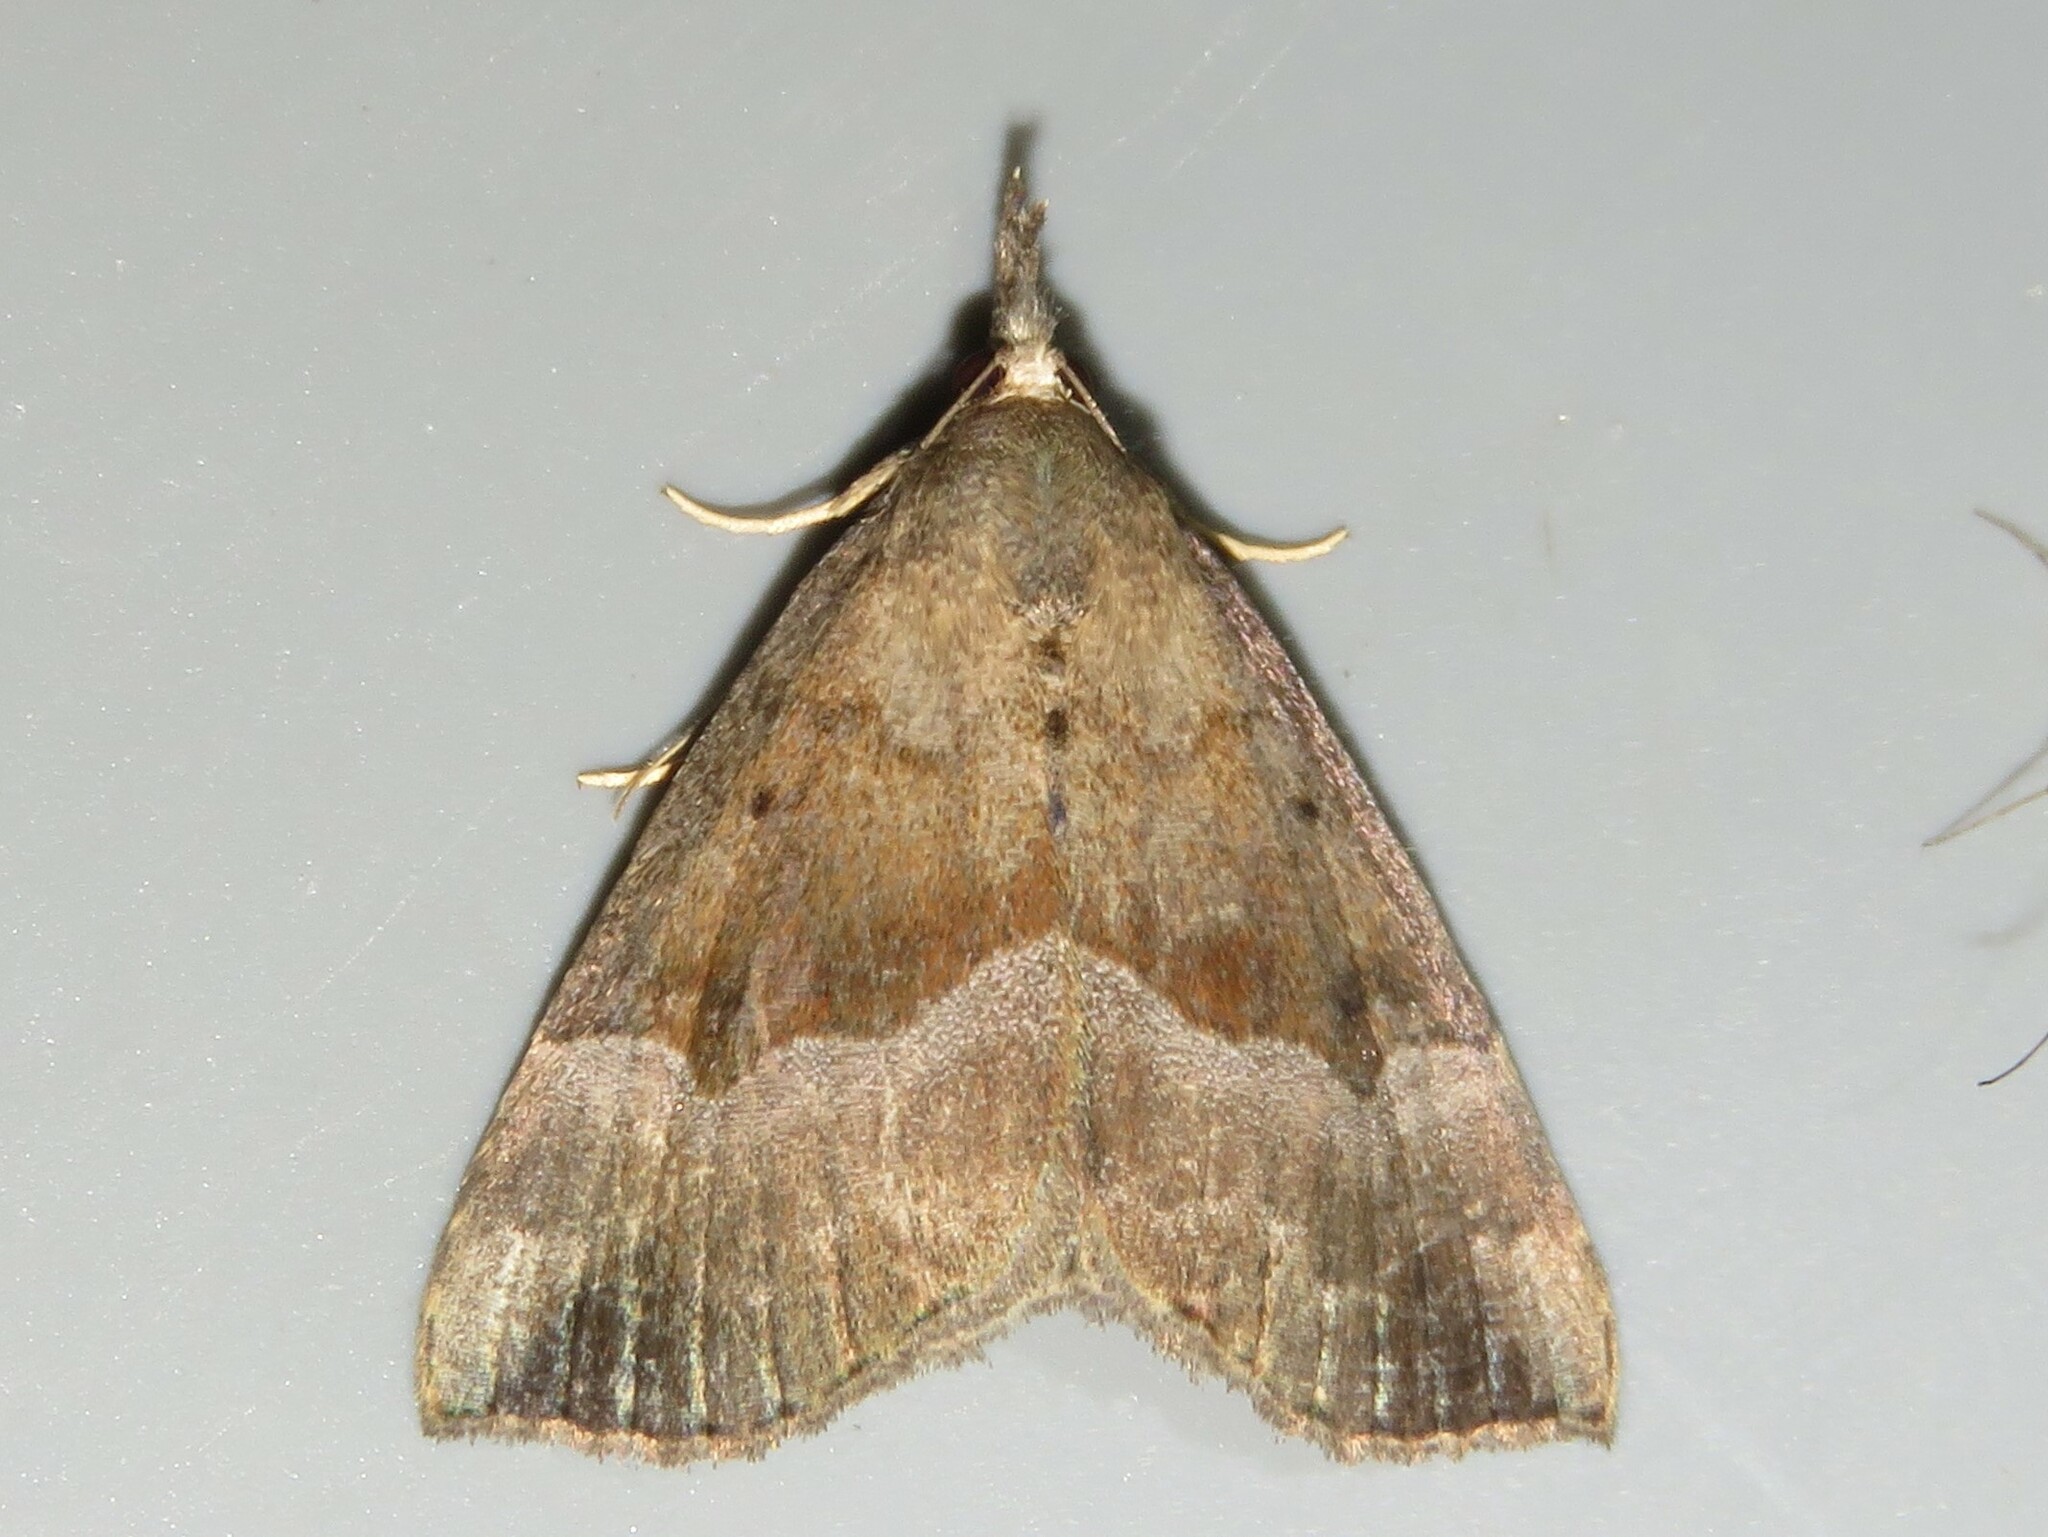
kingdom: Animalia
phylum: Arthropoda
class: Insecta
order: Lepidoptera
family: Erebidae
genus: Hypena
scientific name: Hypena madefactalis
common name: Gray-edged snout
